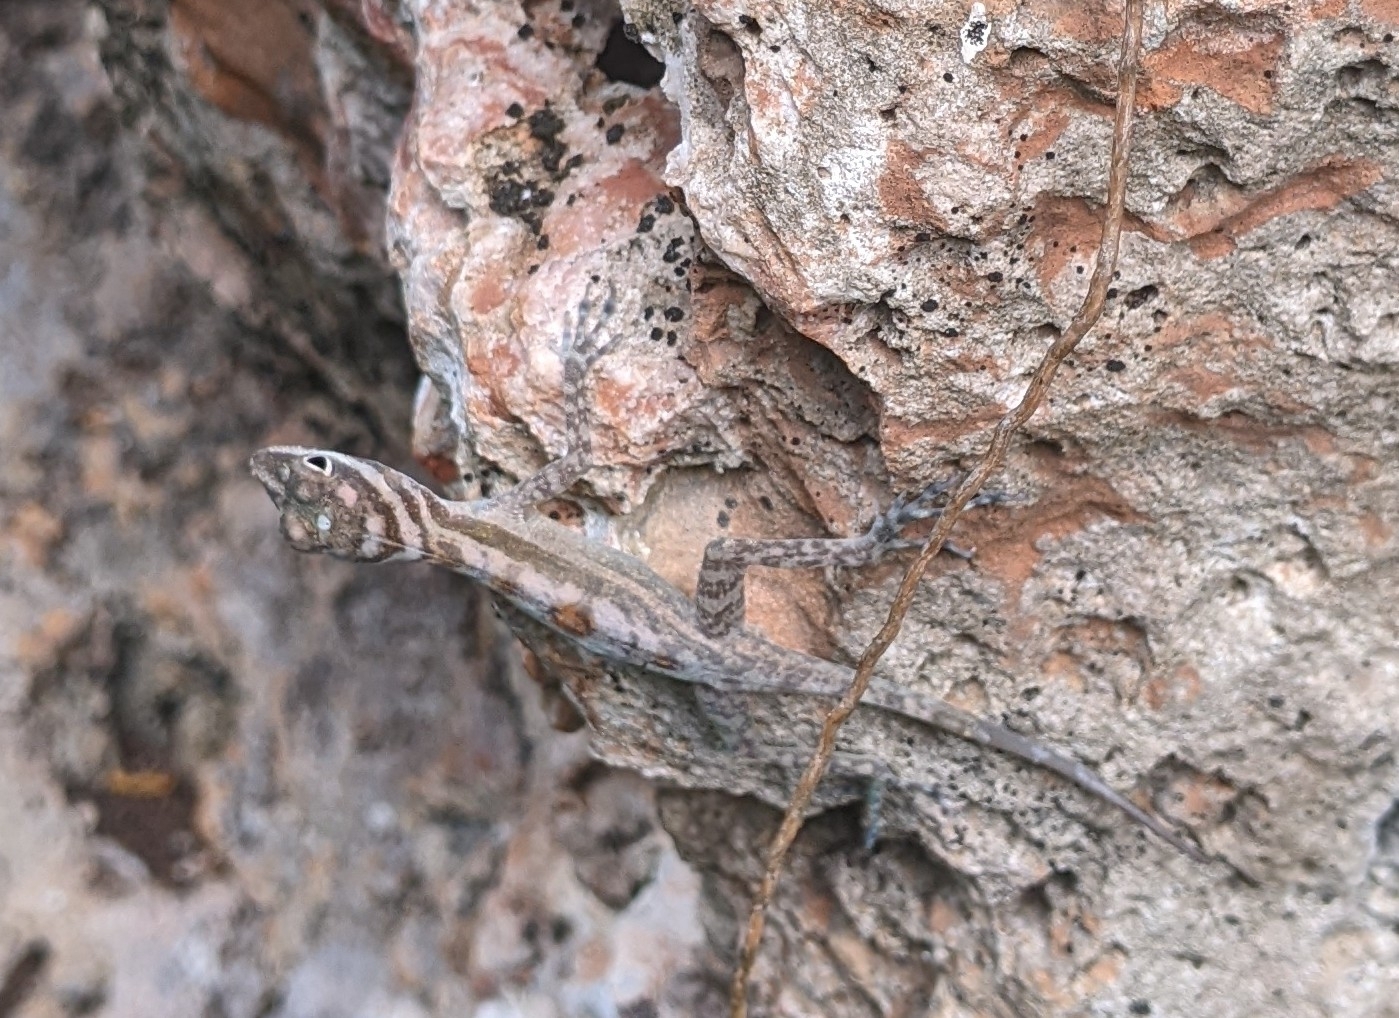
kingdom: Animalia
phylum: Chordata
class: Squamata
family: Dactyloidae
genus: Anolis
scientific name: Anolis lucius
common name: Cave anole
